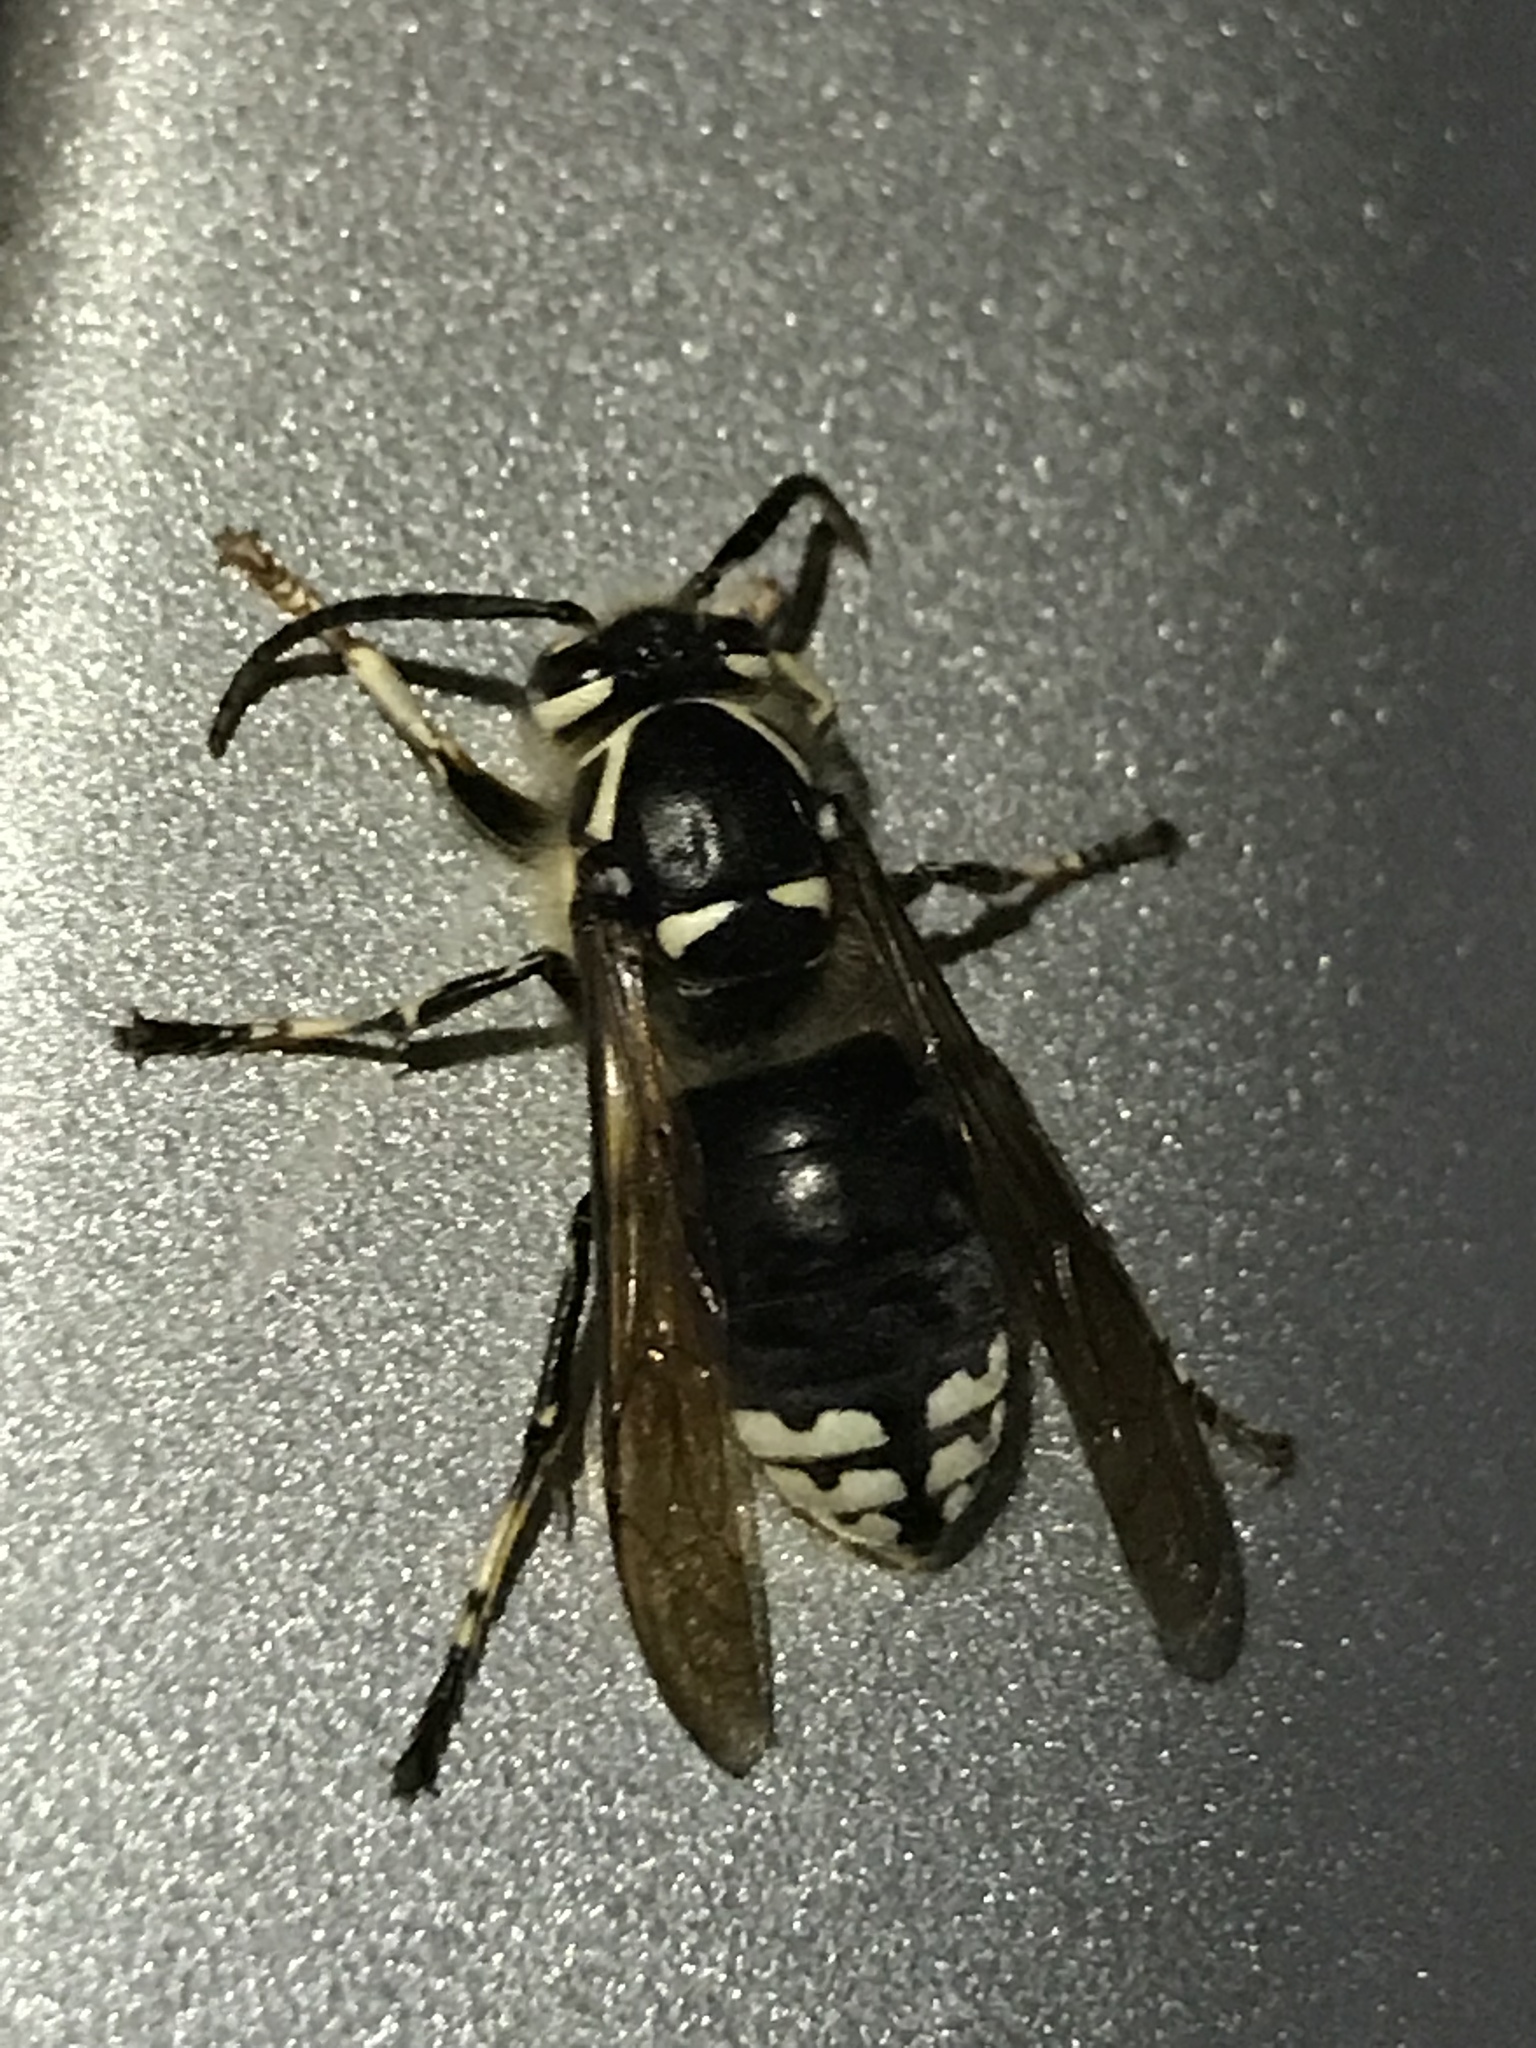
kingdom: Animalia
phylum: Arthropoda
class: Insecta
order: Hymenoptera
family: Vespidae
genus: Dolichovespula
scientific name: Dolichovespula maculata
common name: Bald-faced hornet
